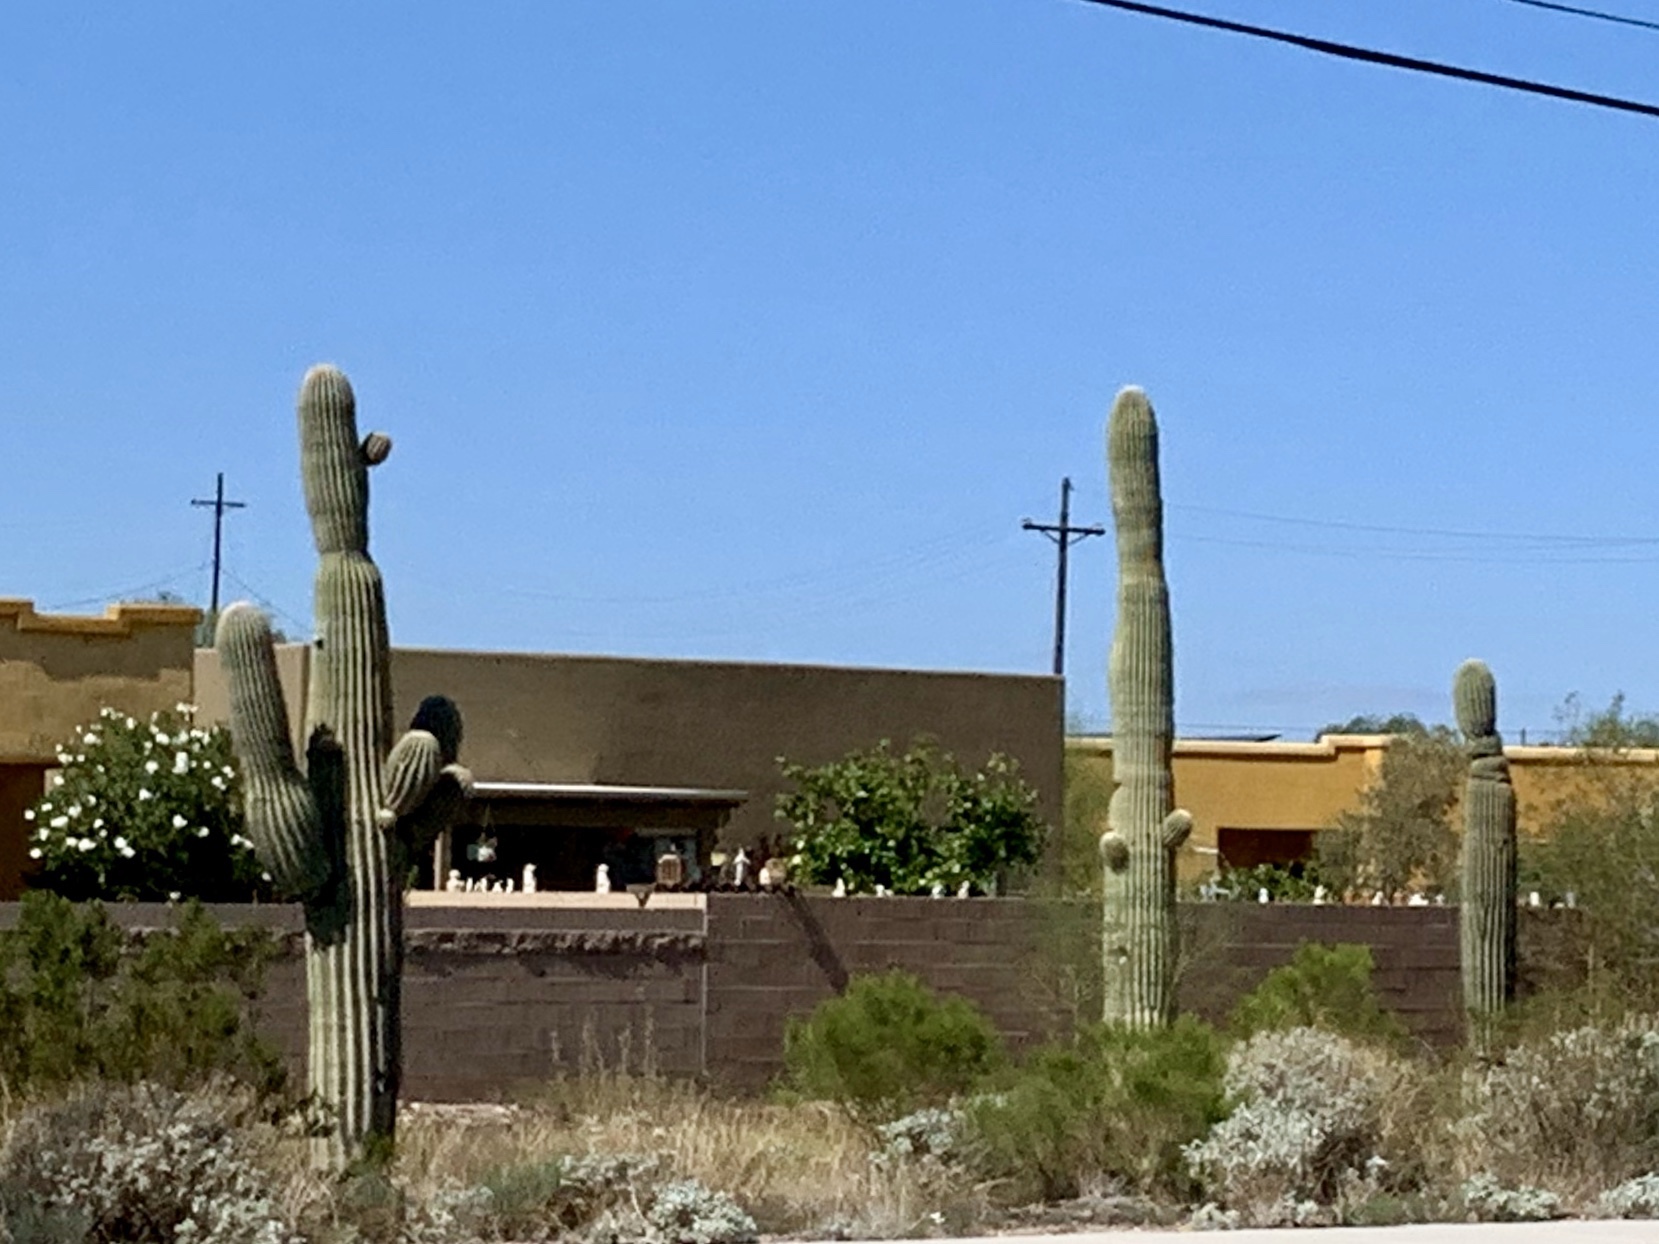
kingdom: Plantae
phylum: Tracheophyta
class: Magnoliopsida
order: Caryophyllales
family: Cactaceae
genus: Carnegiea
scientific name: Carnegiea gigantea
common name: Saguaro
